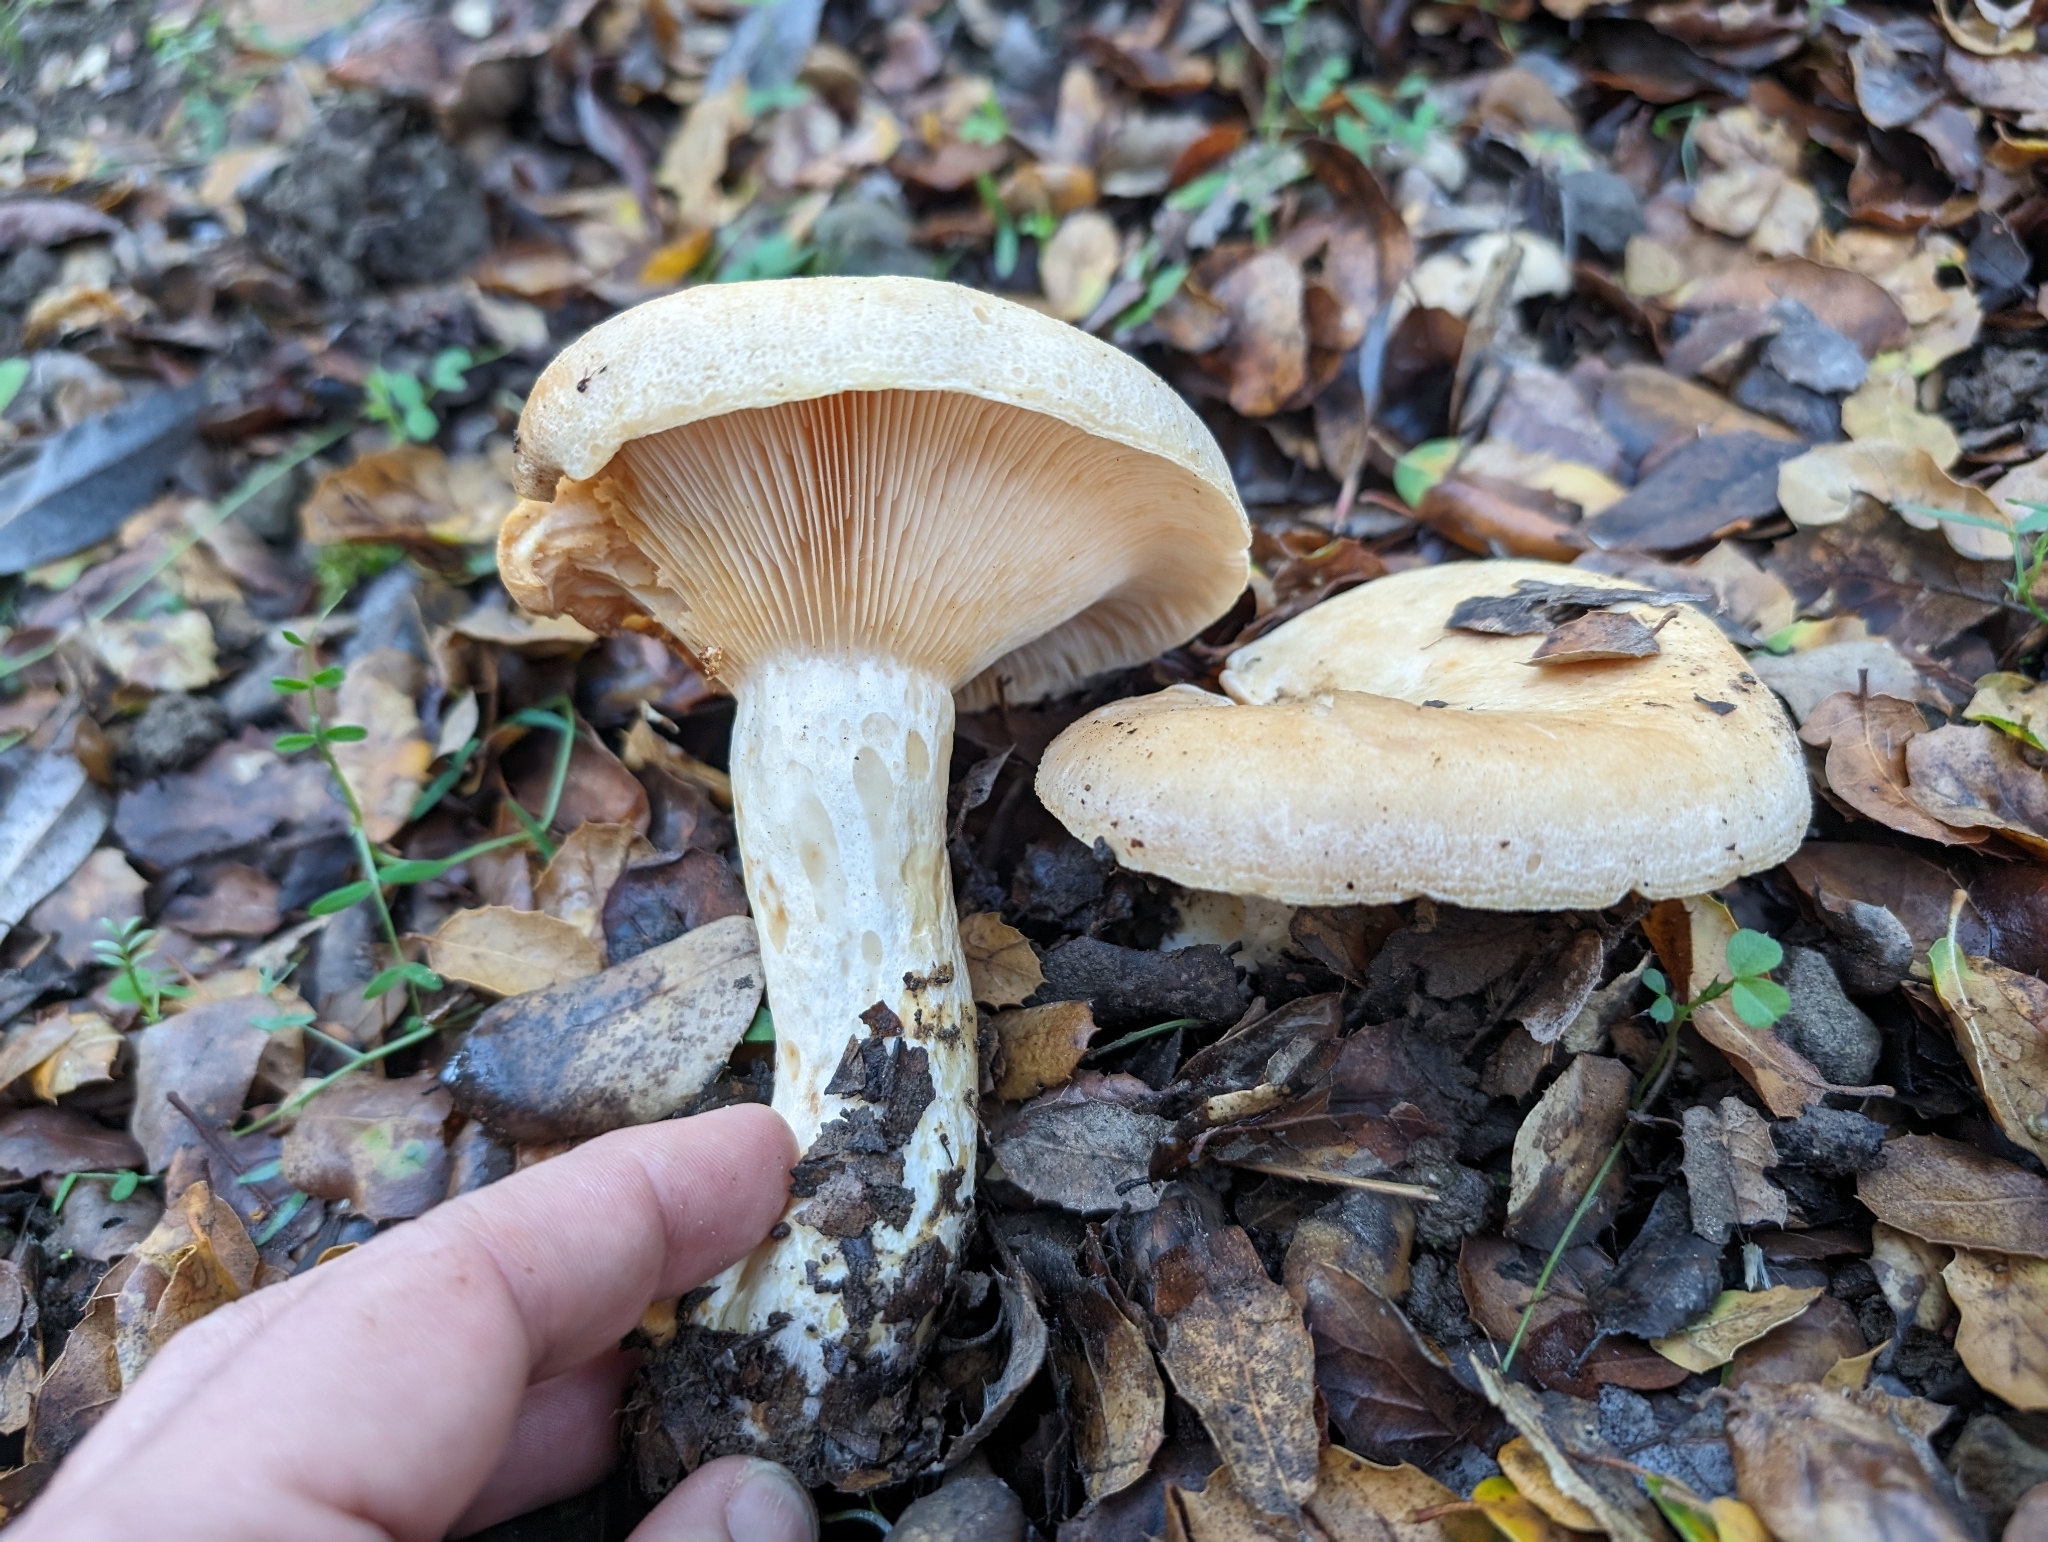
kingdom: Fungi
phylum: Basidiomycota
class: Agaricomycetes
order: Russulales
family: Russulaceae
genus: Lactarius
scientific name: Lactarius alnicola
